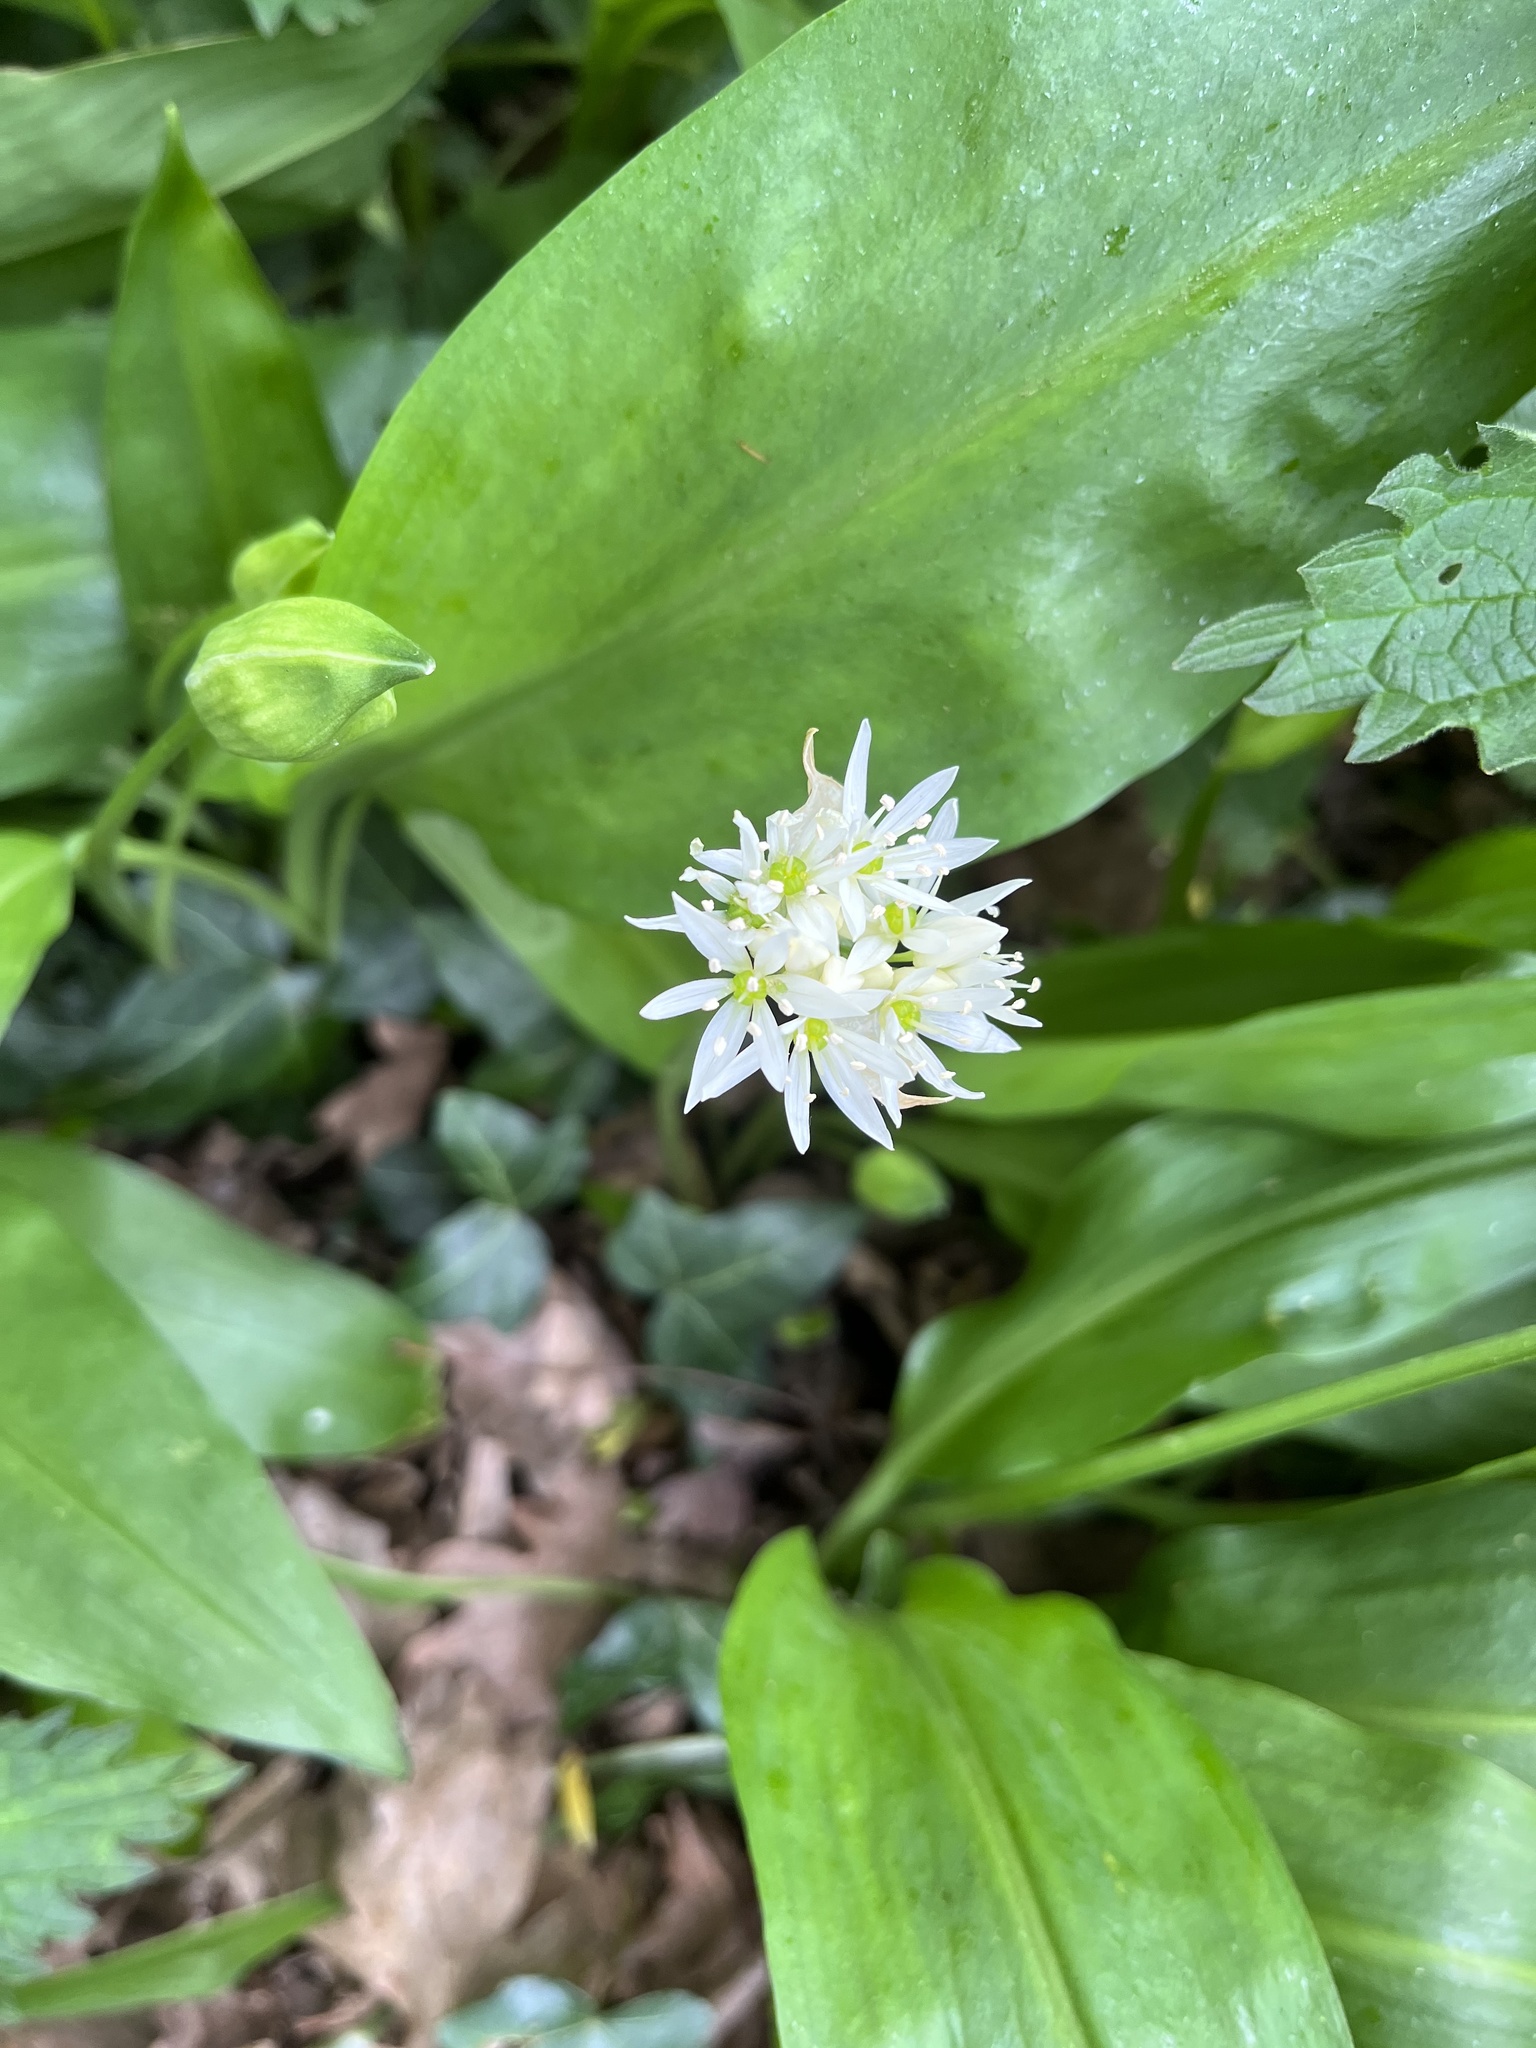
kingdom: Plantae
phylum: Tracheophyta
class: Liliopsida
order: Asparagales
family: Amaryllidaceae
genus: Allium
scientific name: Allium ursinum
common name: Ramsons
